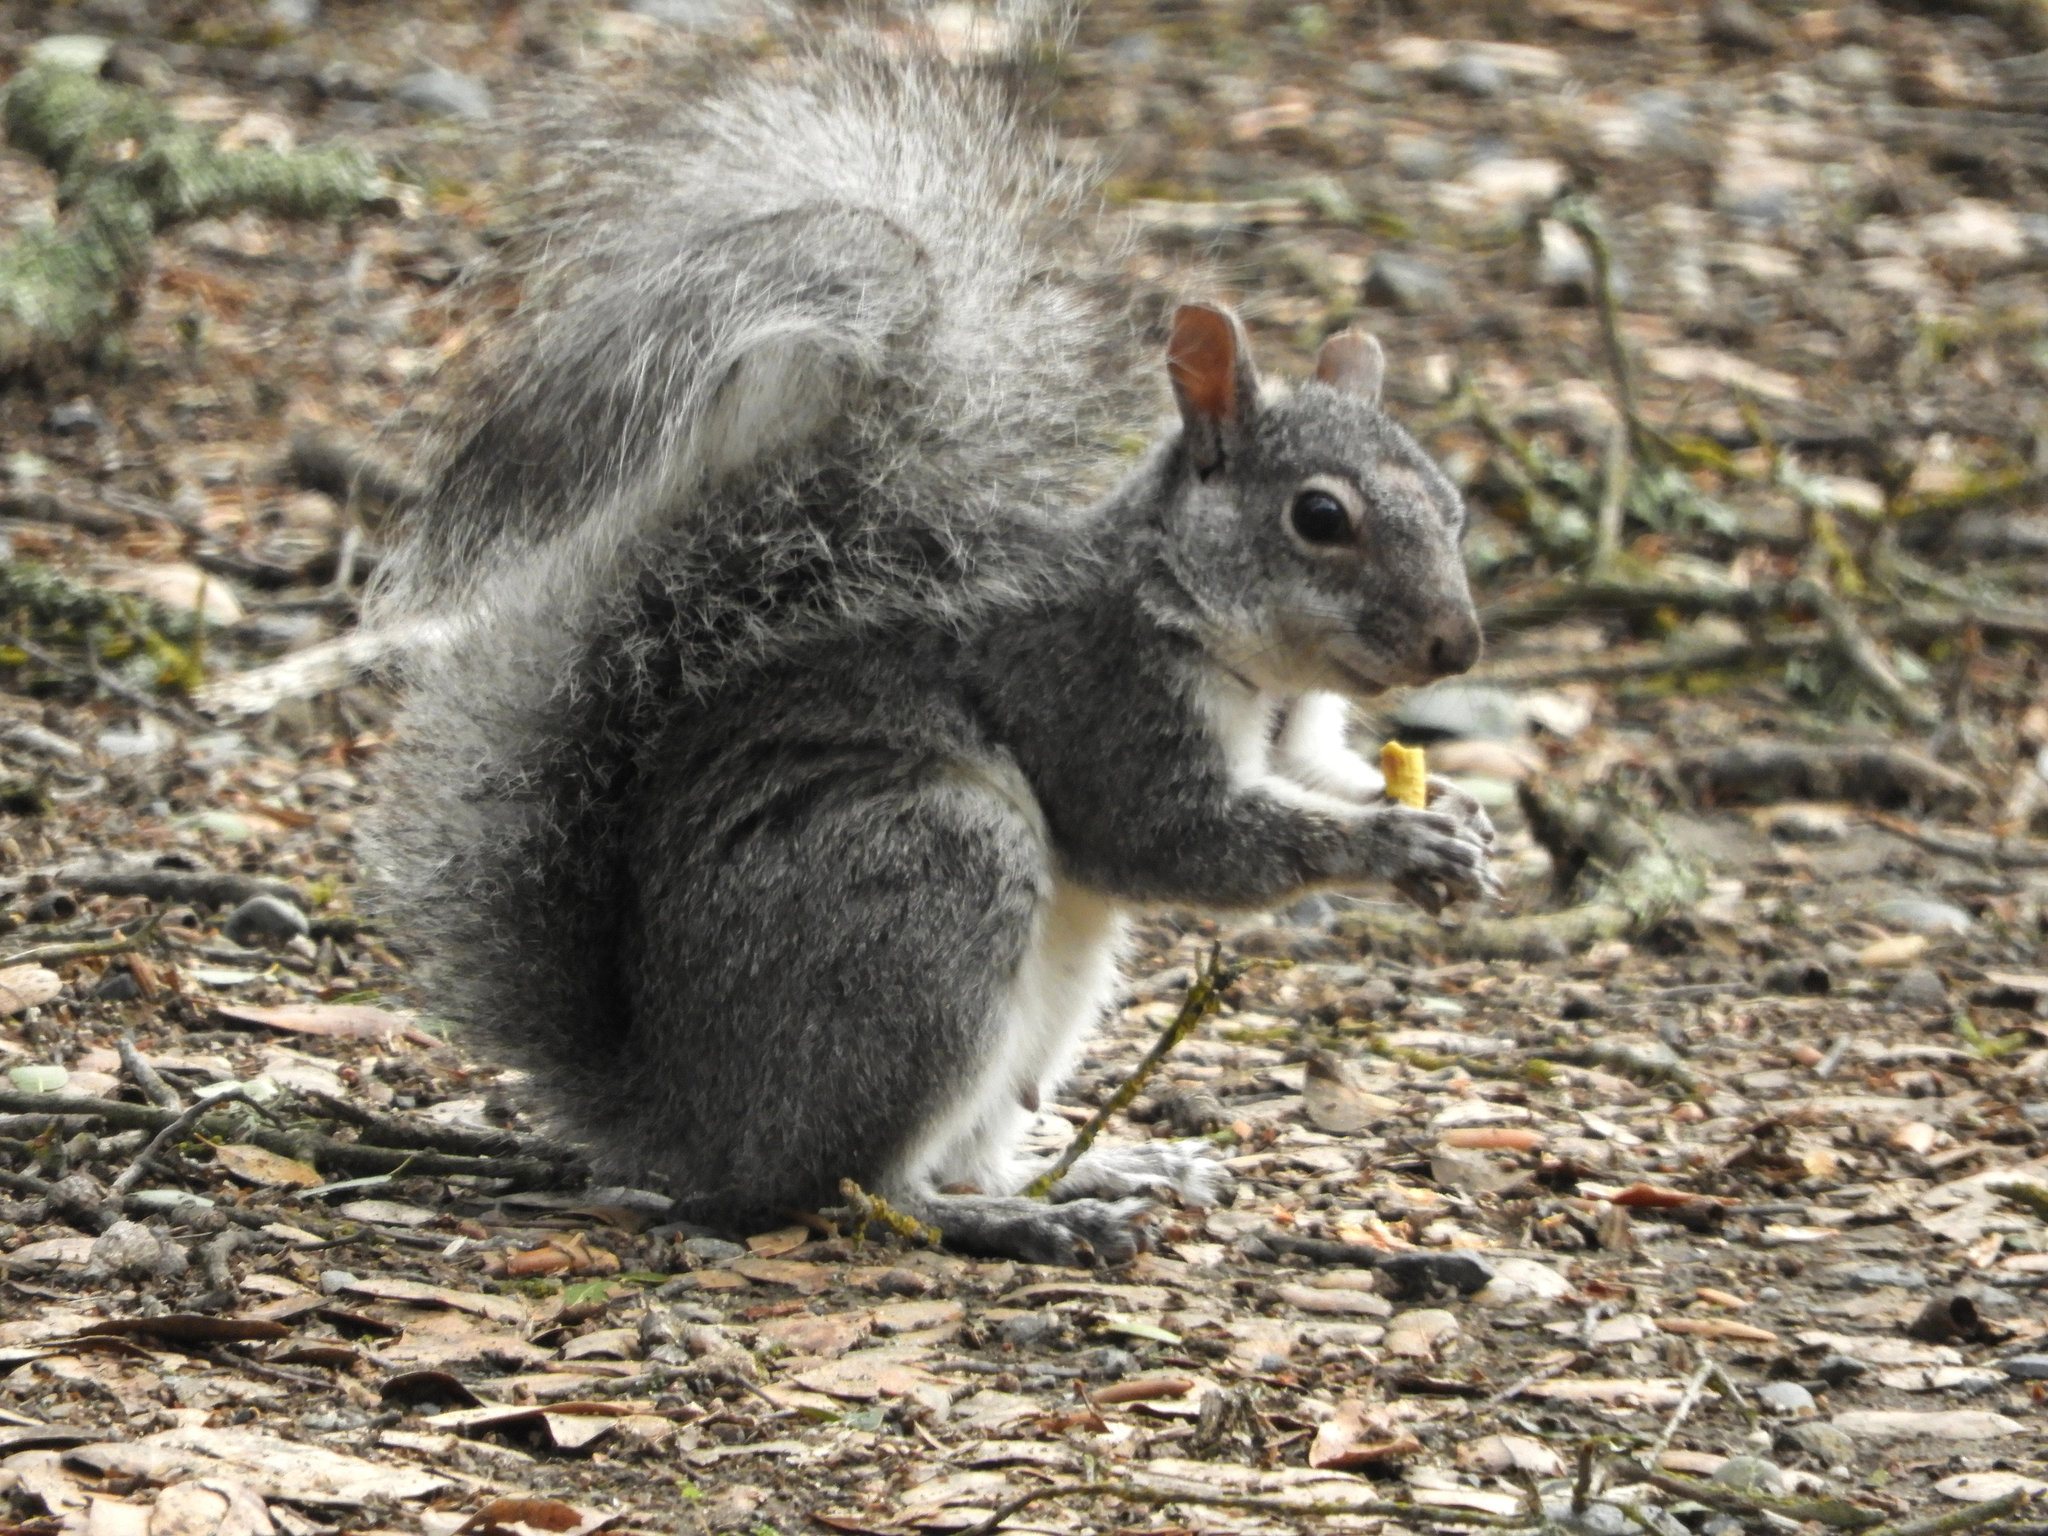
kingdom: Animalia
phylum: Chordata
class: Mammalia
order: Rodentia
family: Sciuridae
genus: Sciurus
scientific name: Sciurus griseus
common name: Western gray squirrel
